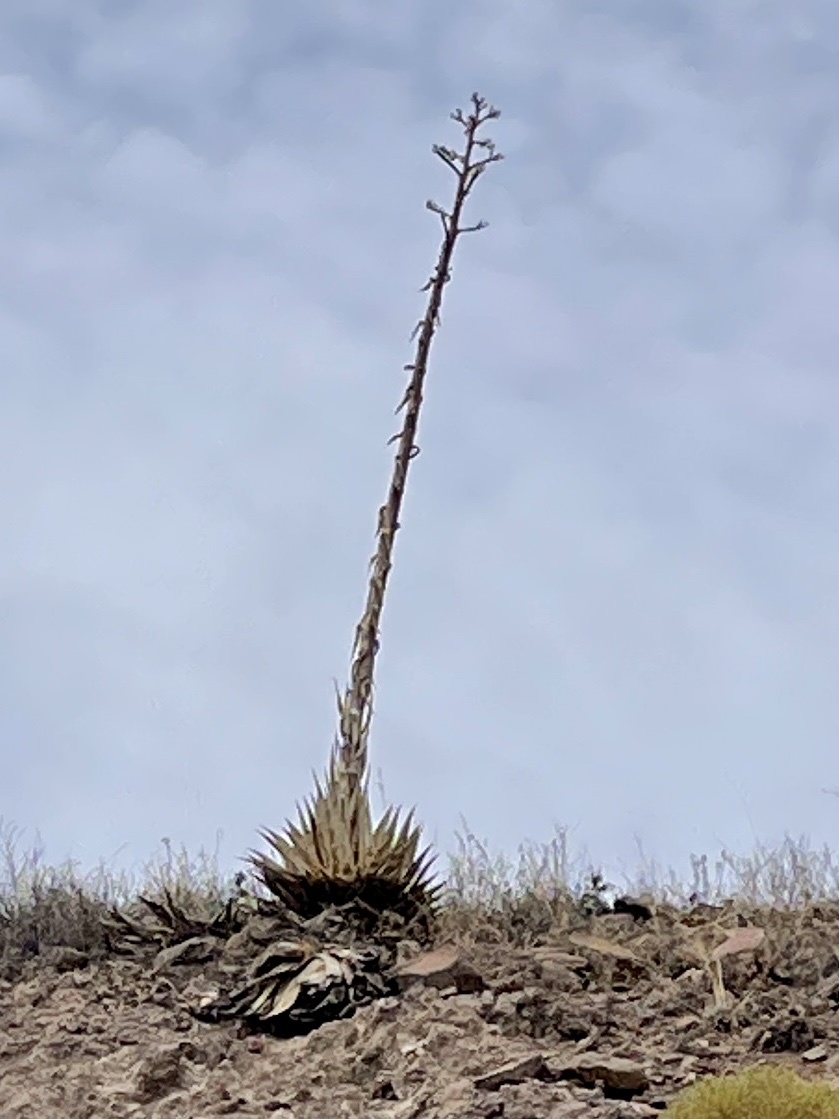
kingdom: Plantae
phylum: Tracheophyta
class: Liliopsida
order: Asparagales
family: Asparagaceae
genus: Agave
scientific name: Agave parryi
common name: Parry's agave
